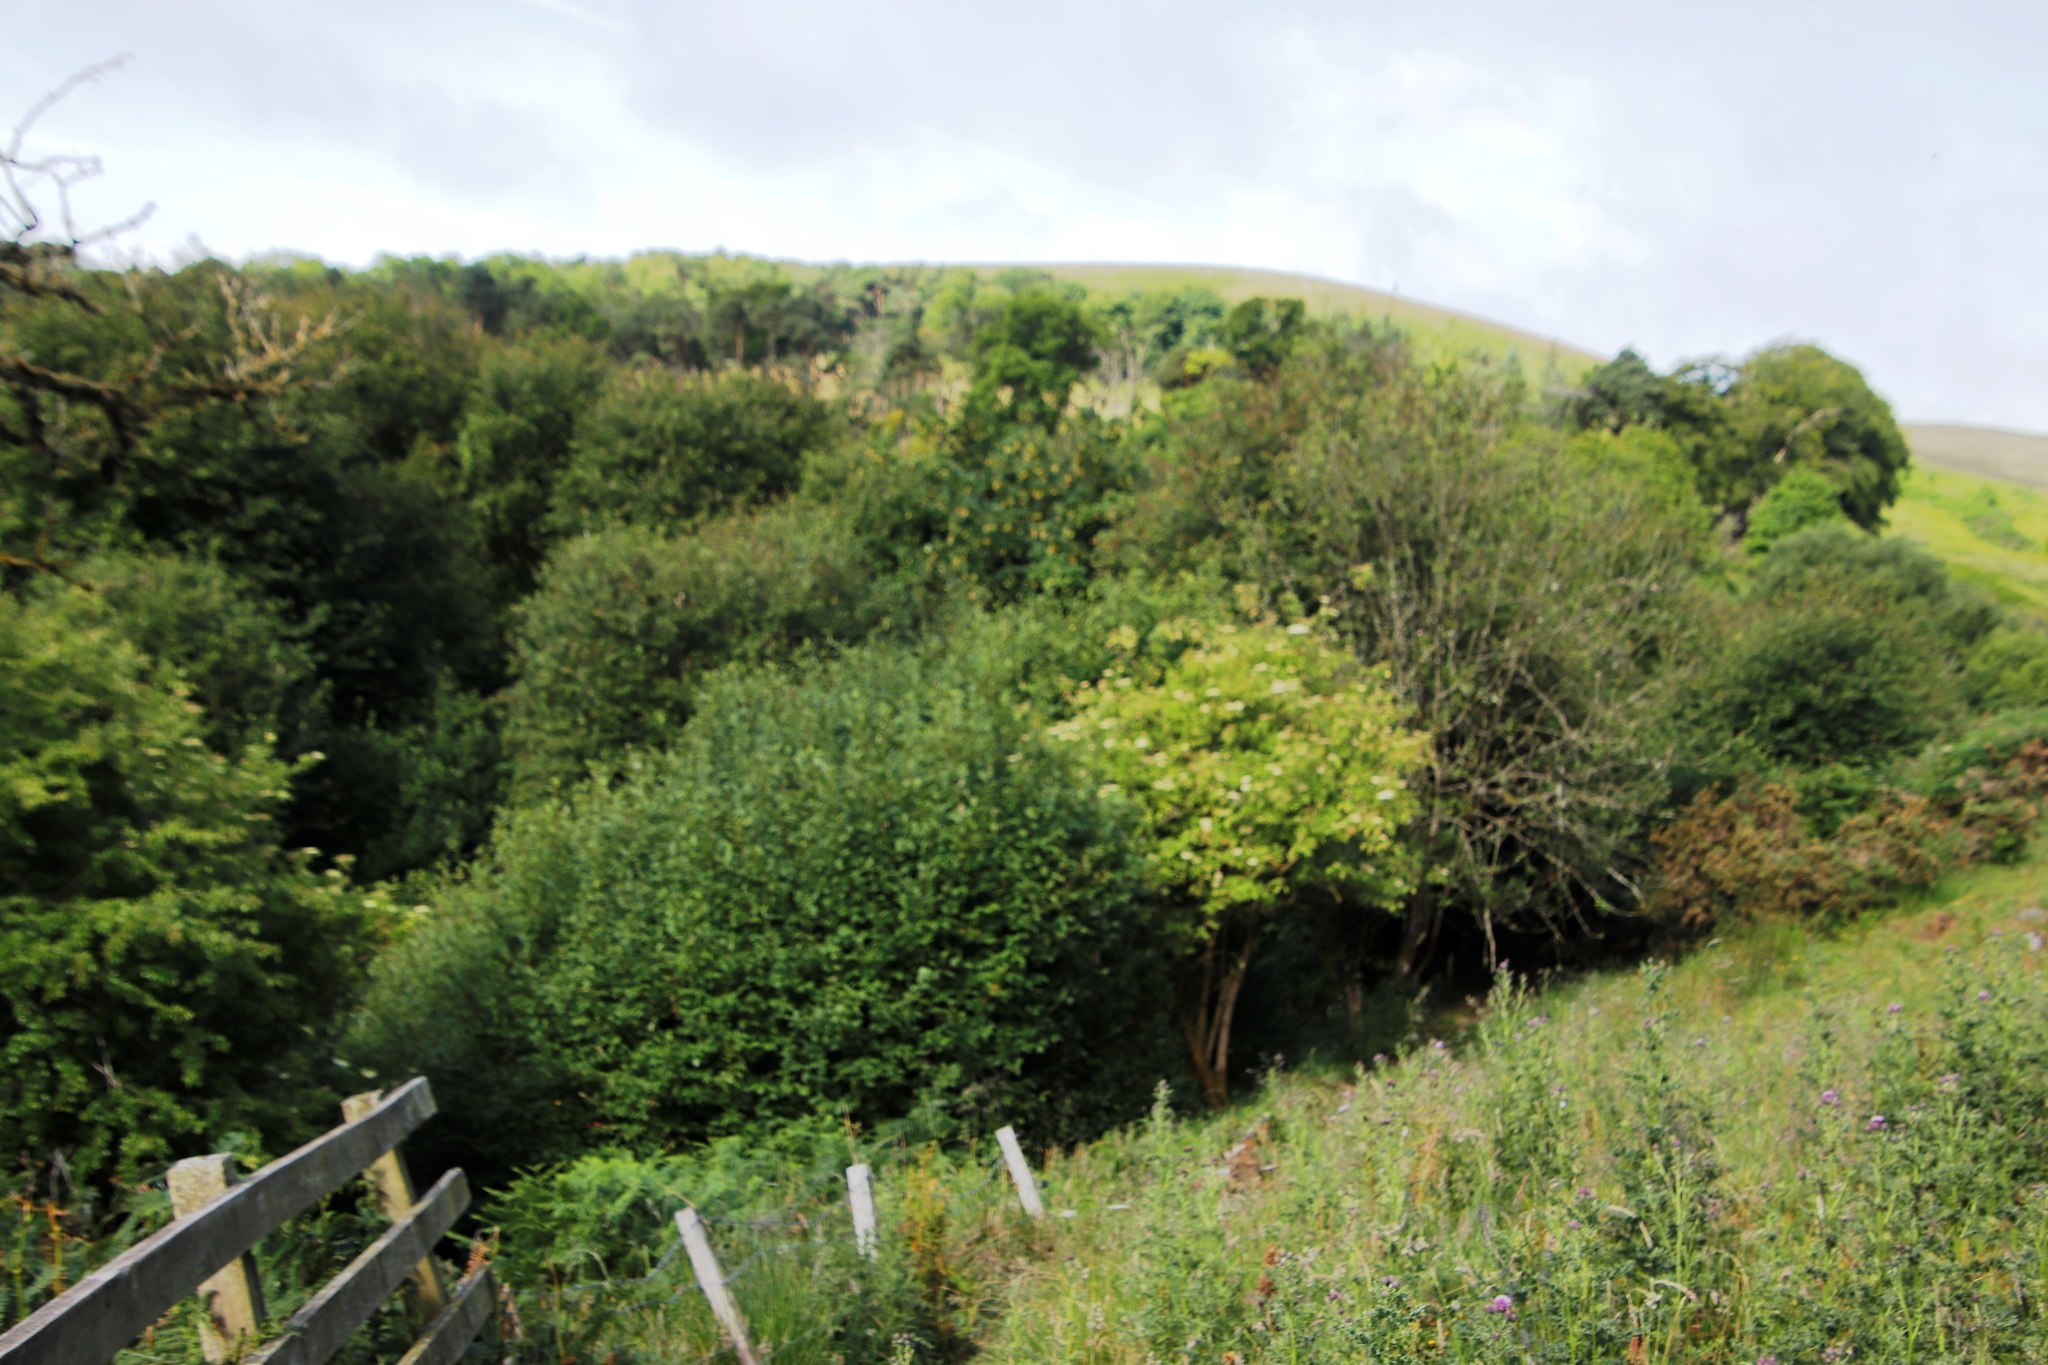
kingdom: Plantae
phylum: Tracheophyta
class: Magnoliopsida
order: Dipsacales
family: Viburnaceae
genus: Sambucus
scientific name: Sambucus nigra
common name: Elder
